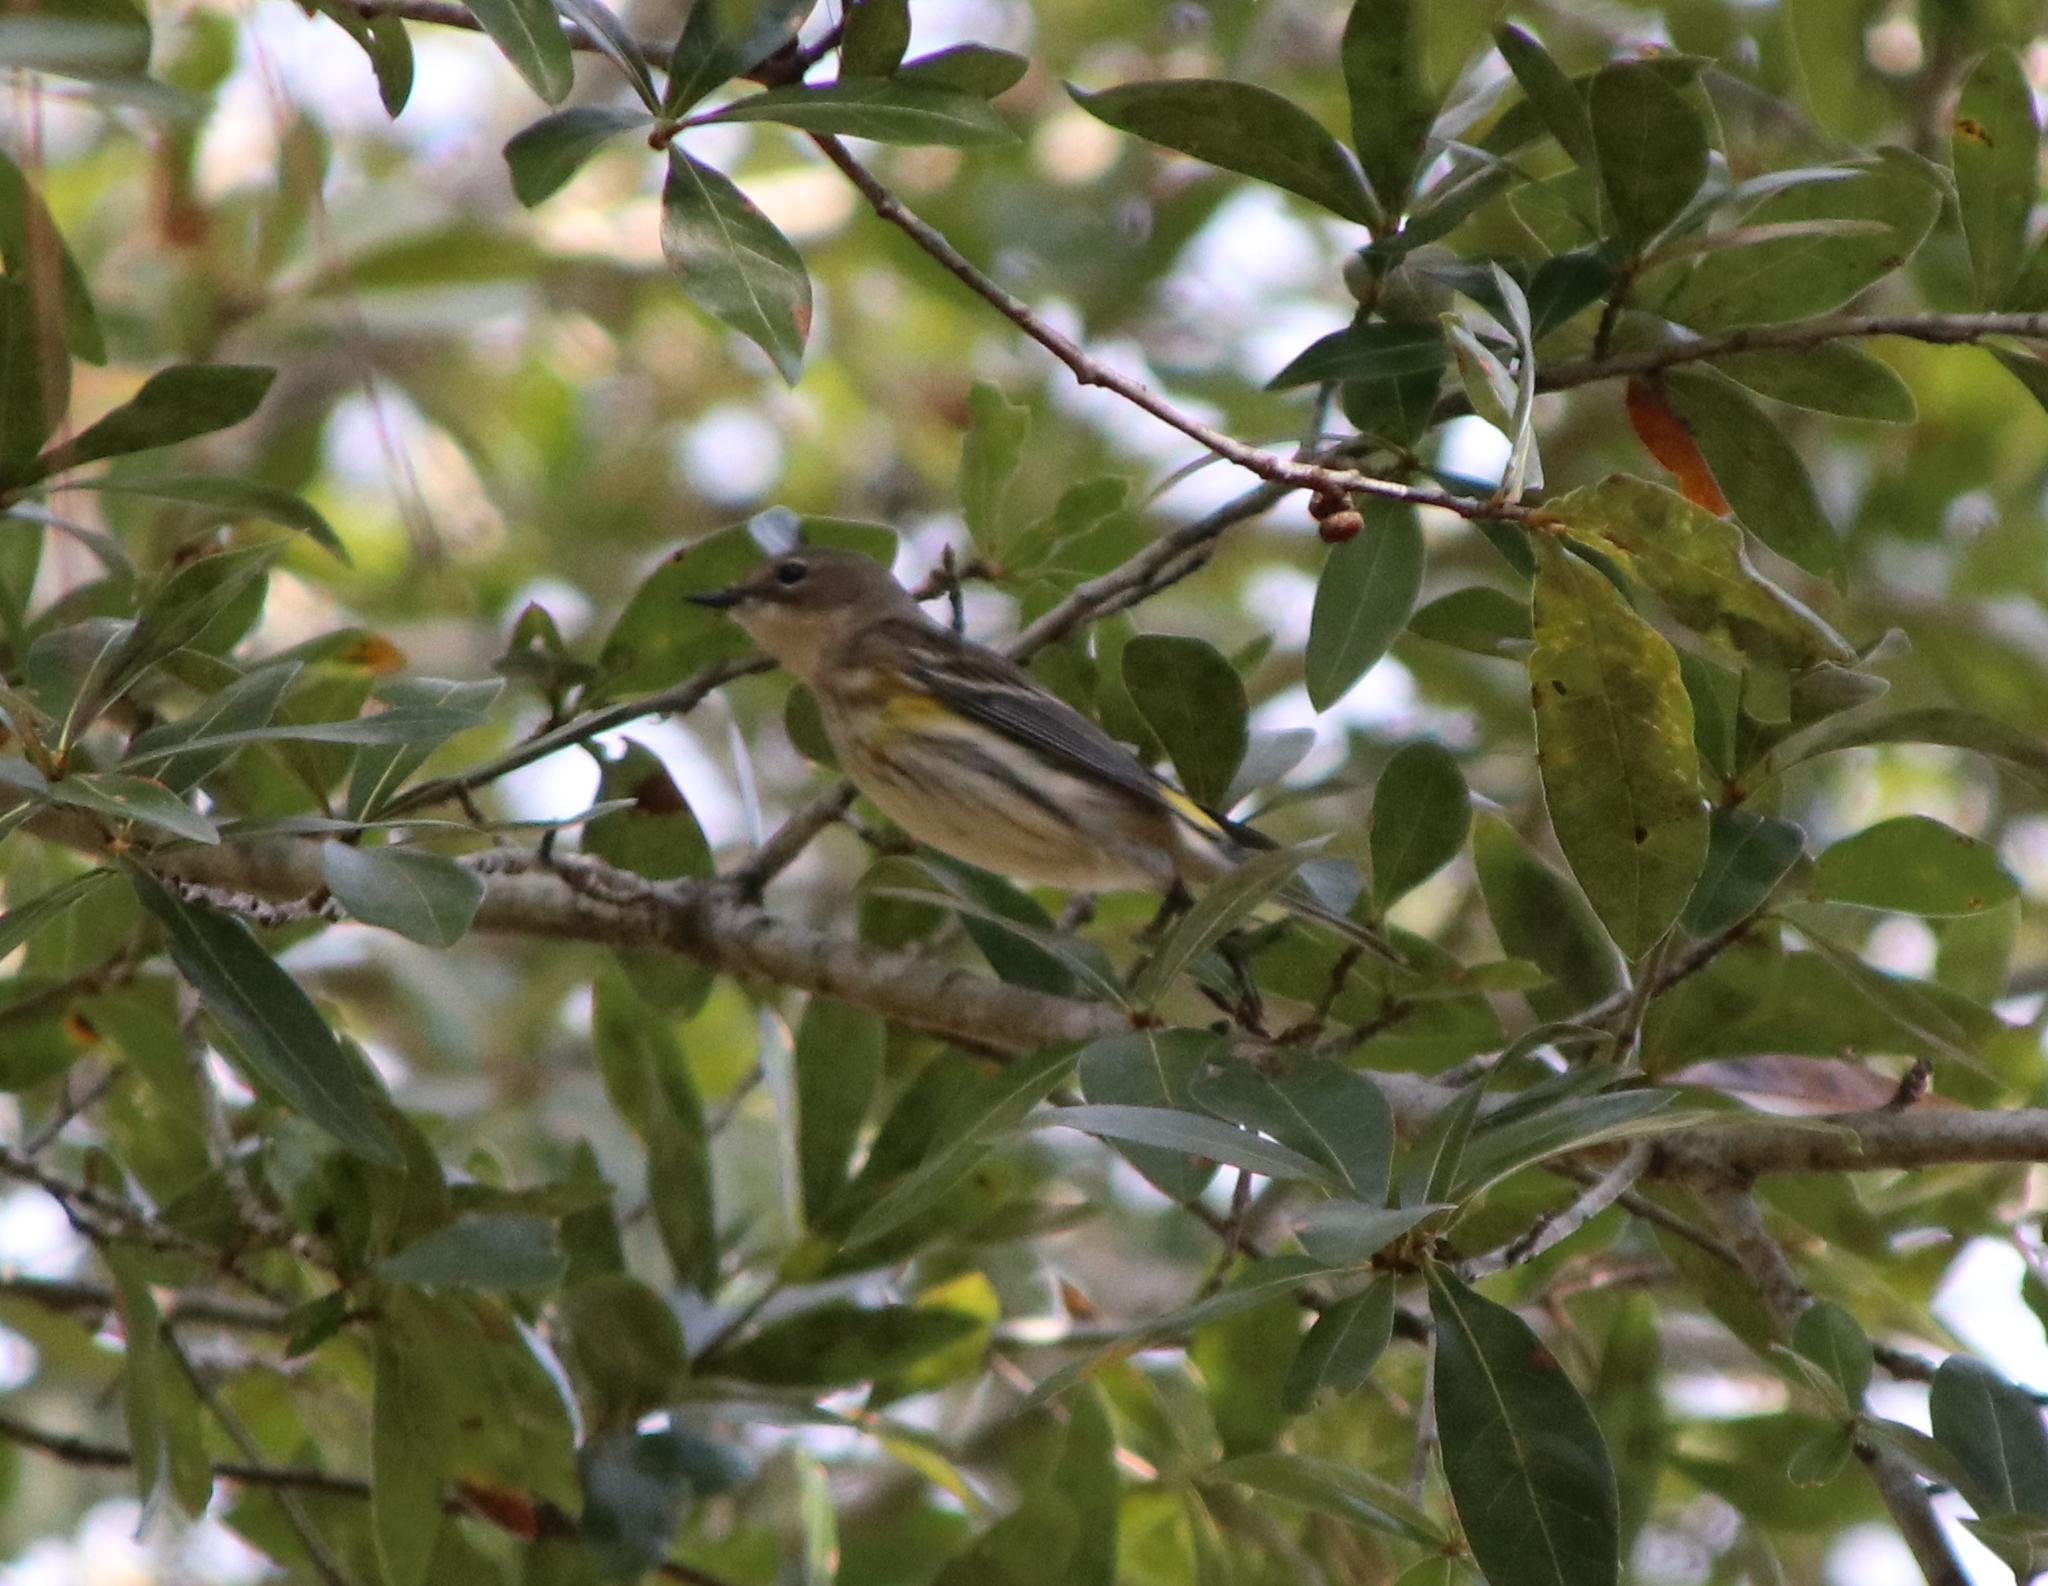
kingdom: Animalia
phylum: Chordata
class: Aves
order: Passeriformes
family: Parulidae
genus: Setophaga
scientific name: Setophaga coronata
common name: Myrtle warbler
